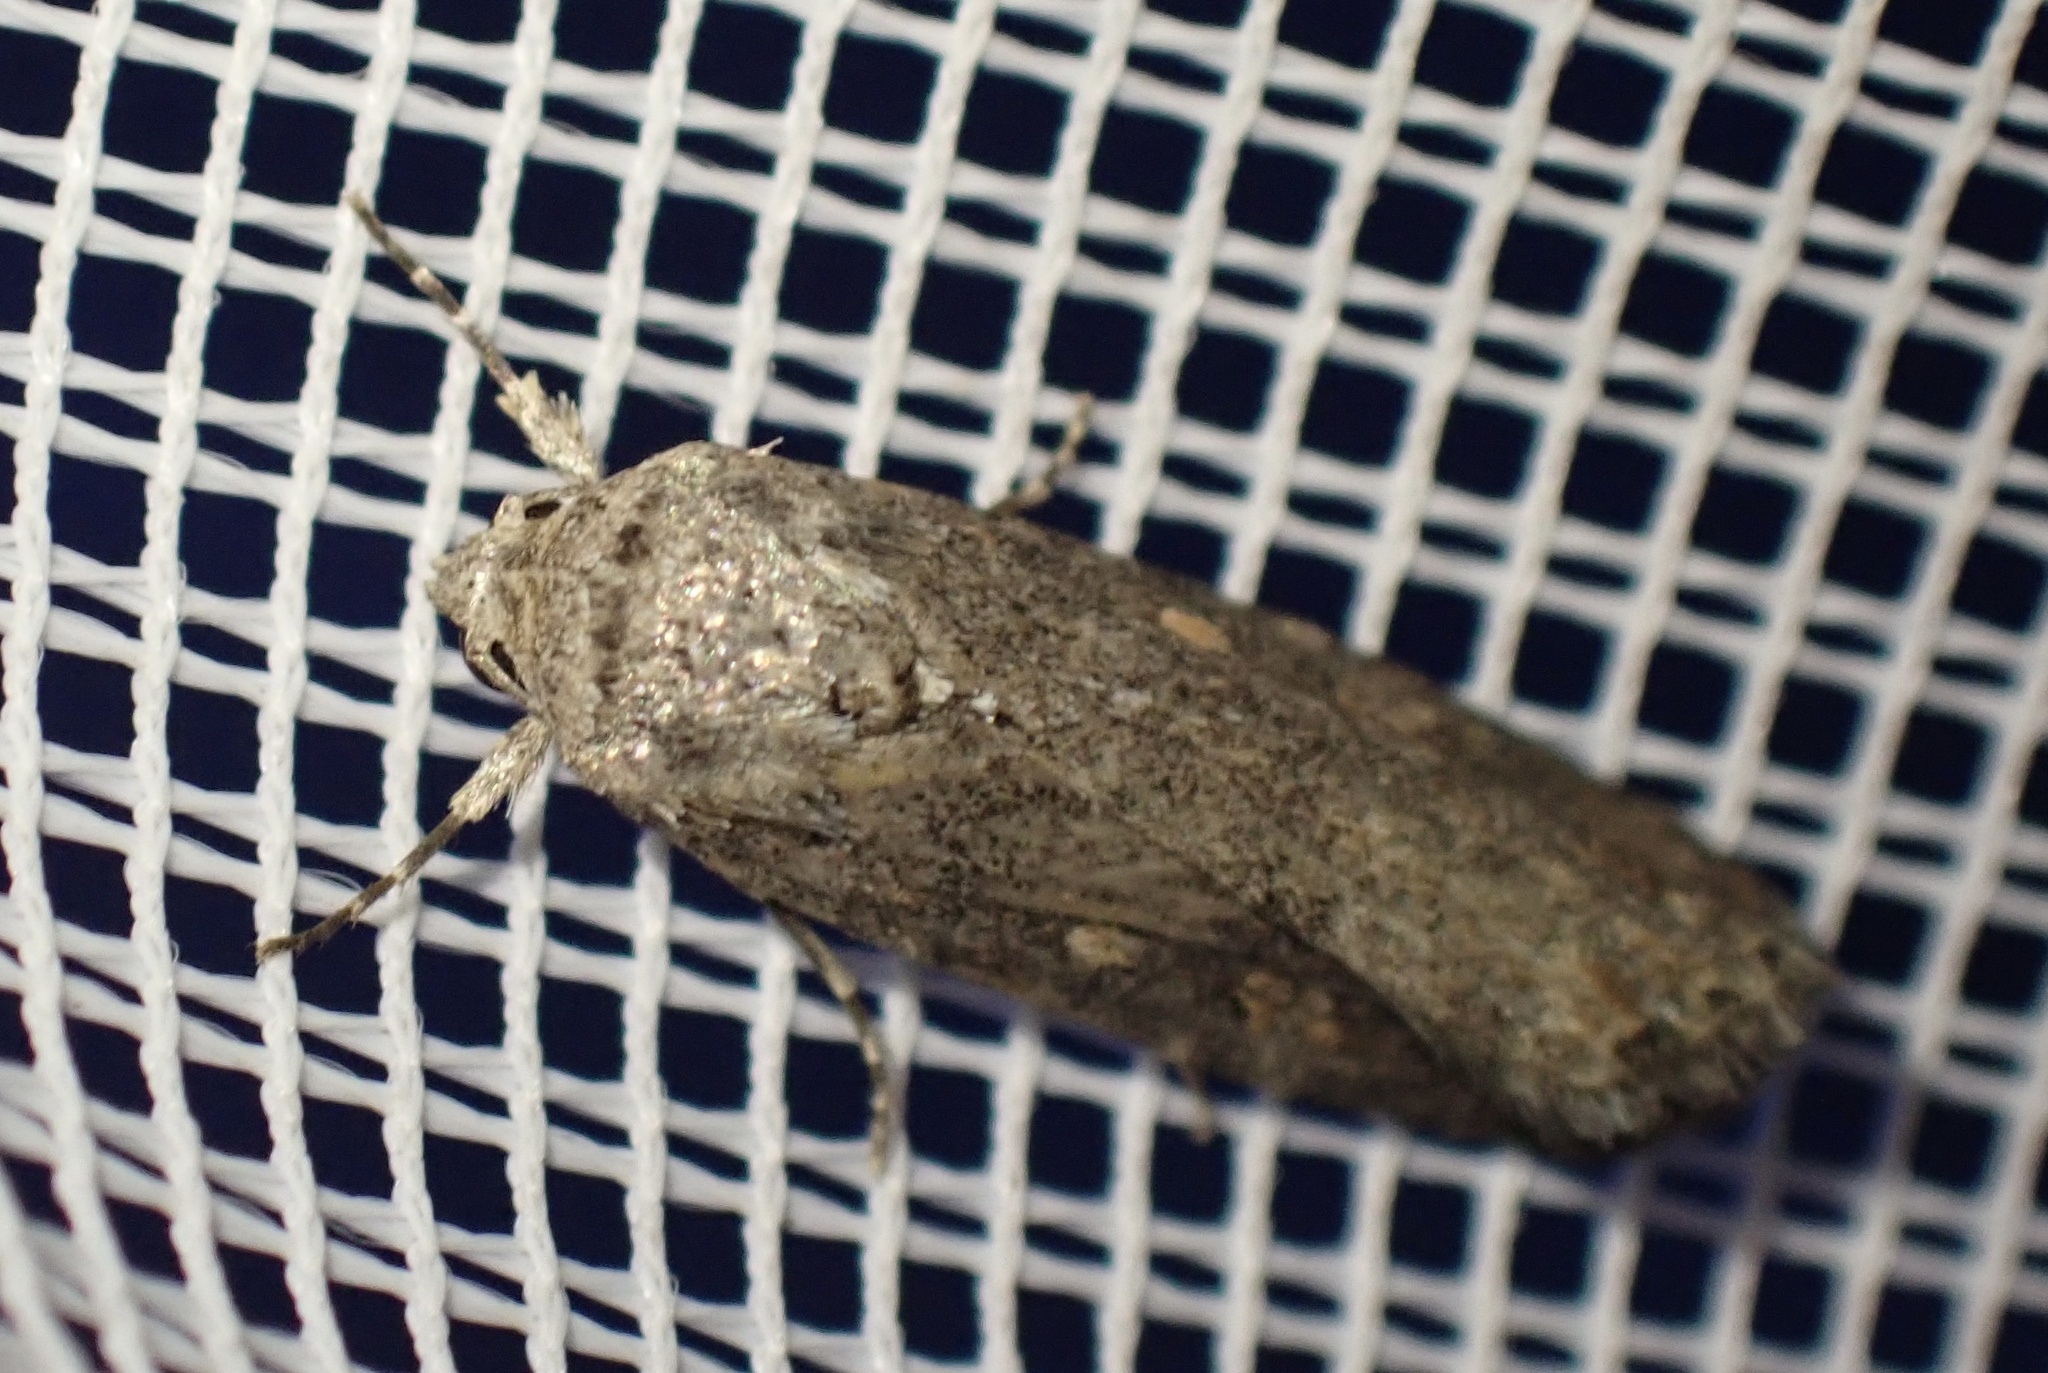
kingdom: Animalia
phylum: Arthropoda
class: Insecta
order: Lepidoptera
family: Noctuidae
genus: Spodoptera
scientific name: Spodoptera exigua
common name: Beet armyworm
